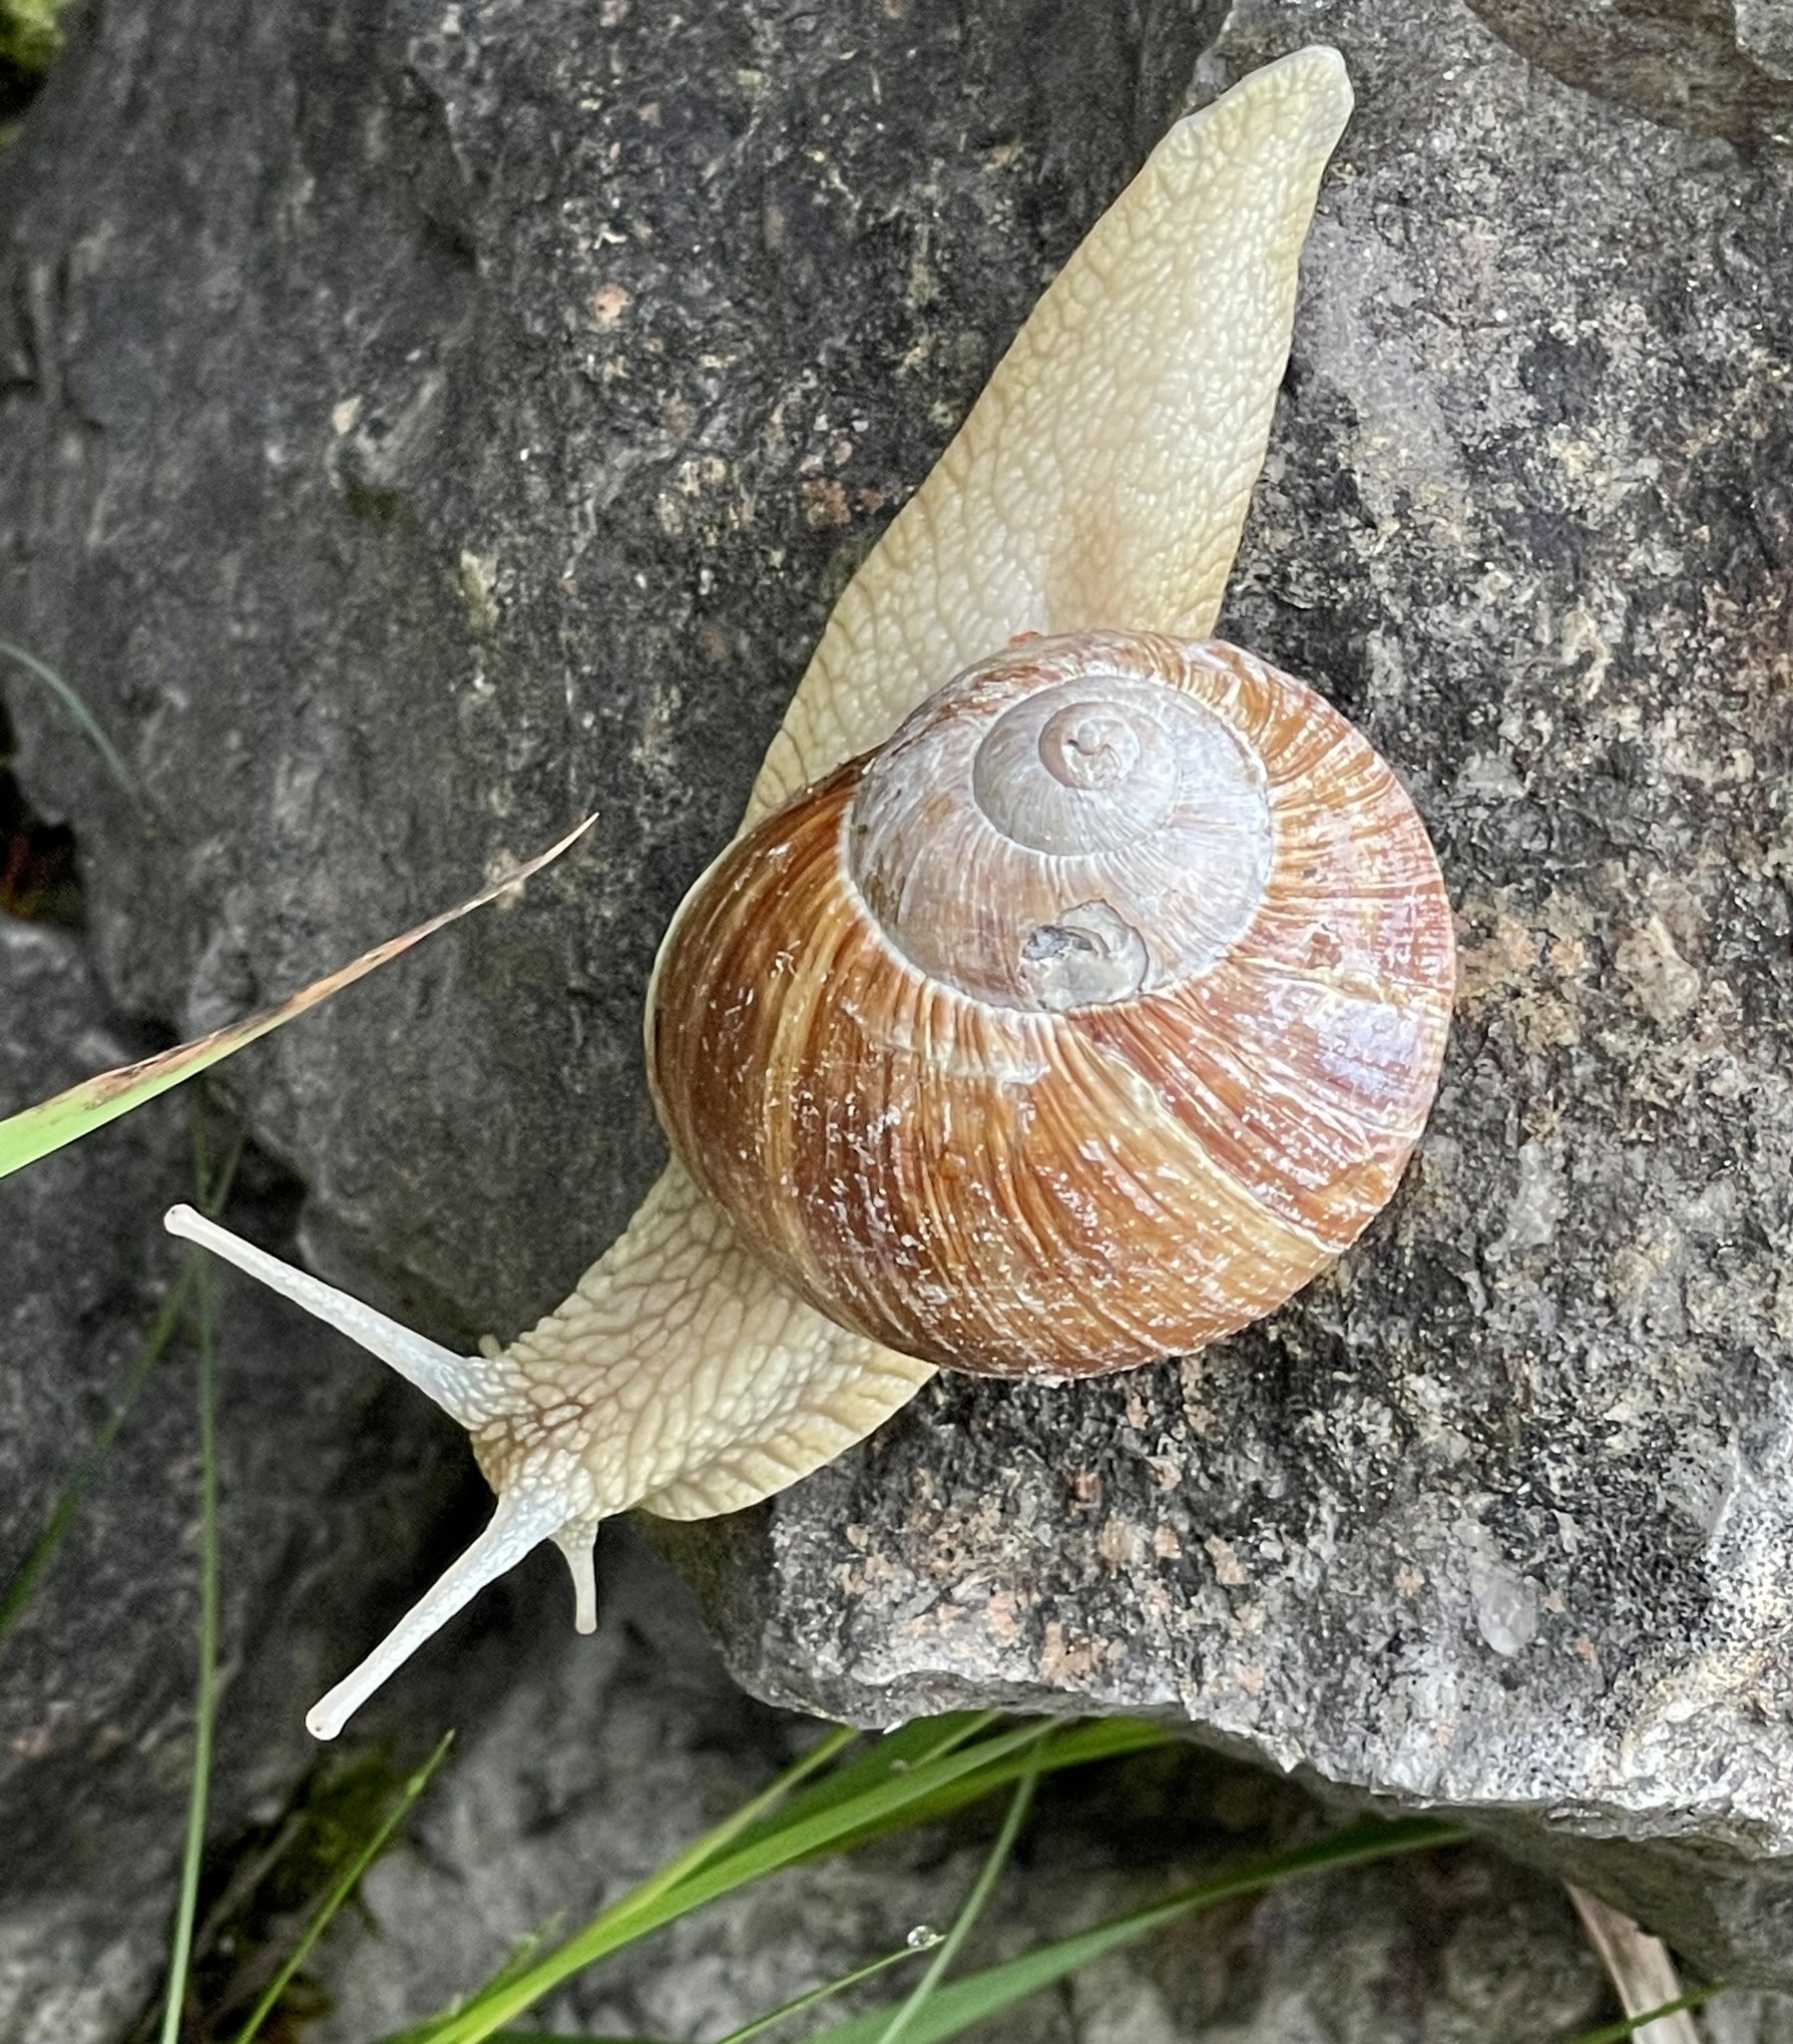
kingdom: Animalia
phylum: Mollusca
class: Gastropoda
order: Stylommatophora
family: Helicidae
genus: Helix
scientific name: Helix pomatia
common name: Roman snail
